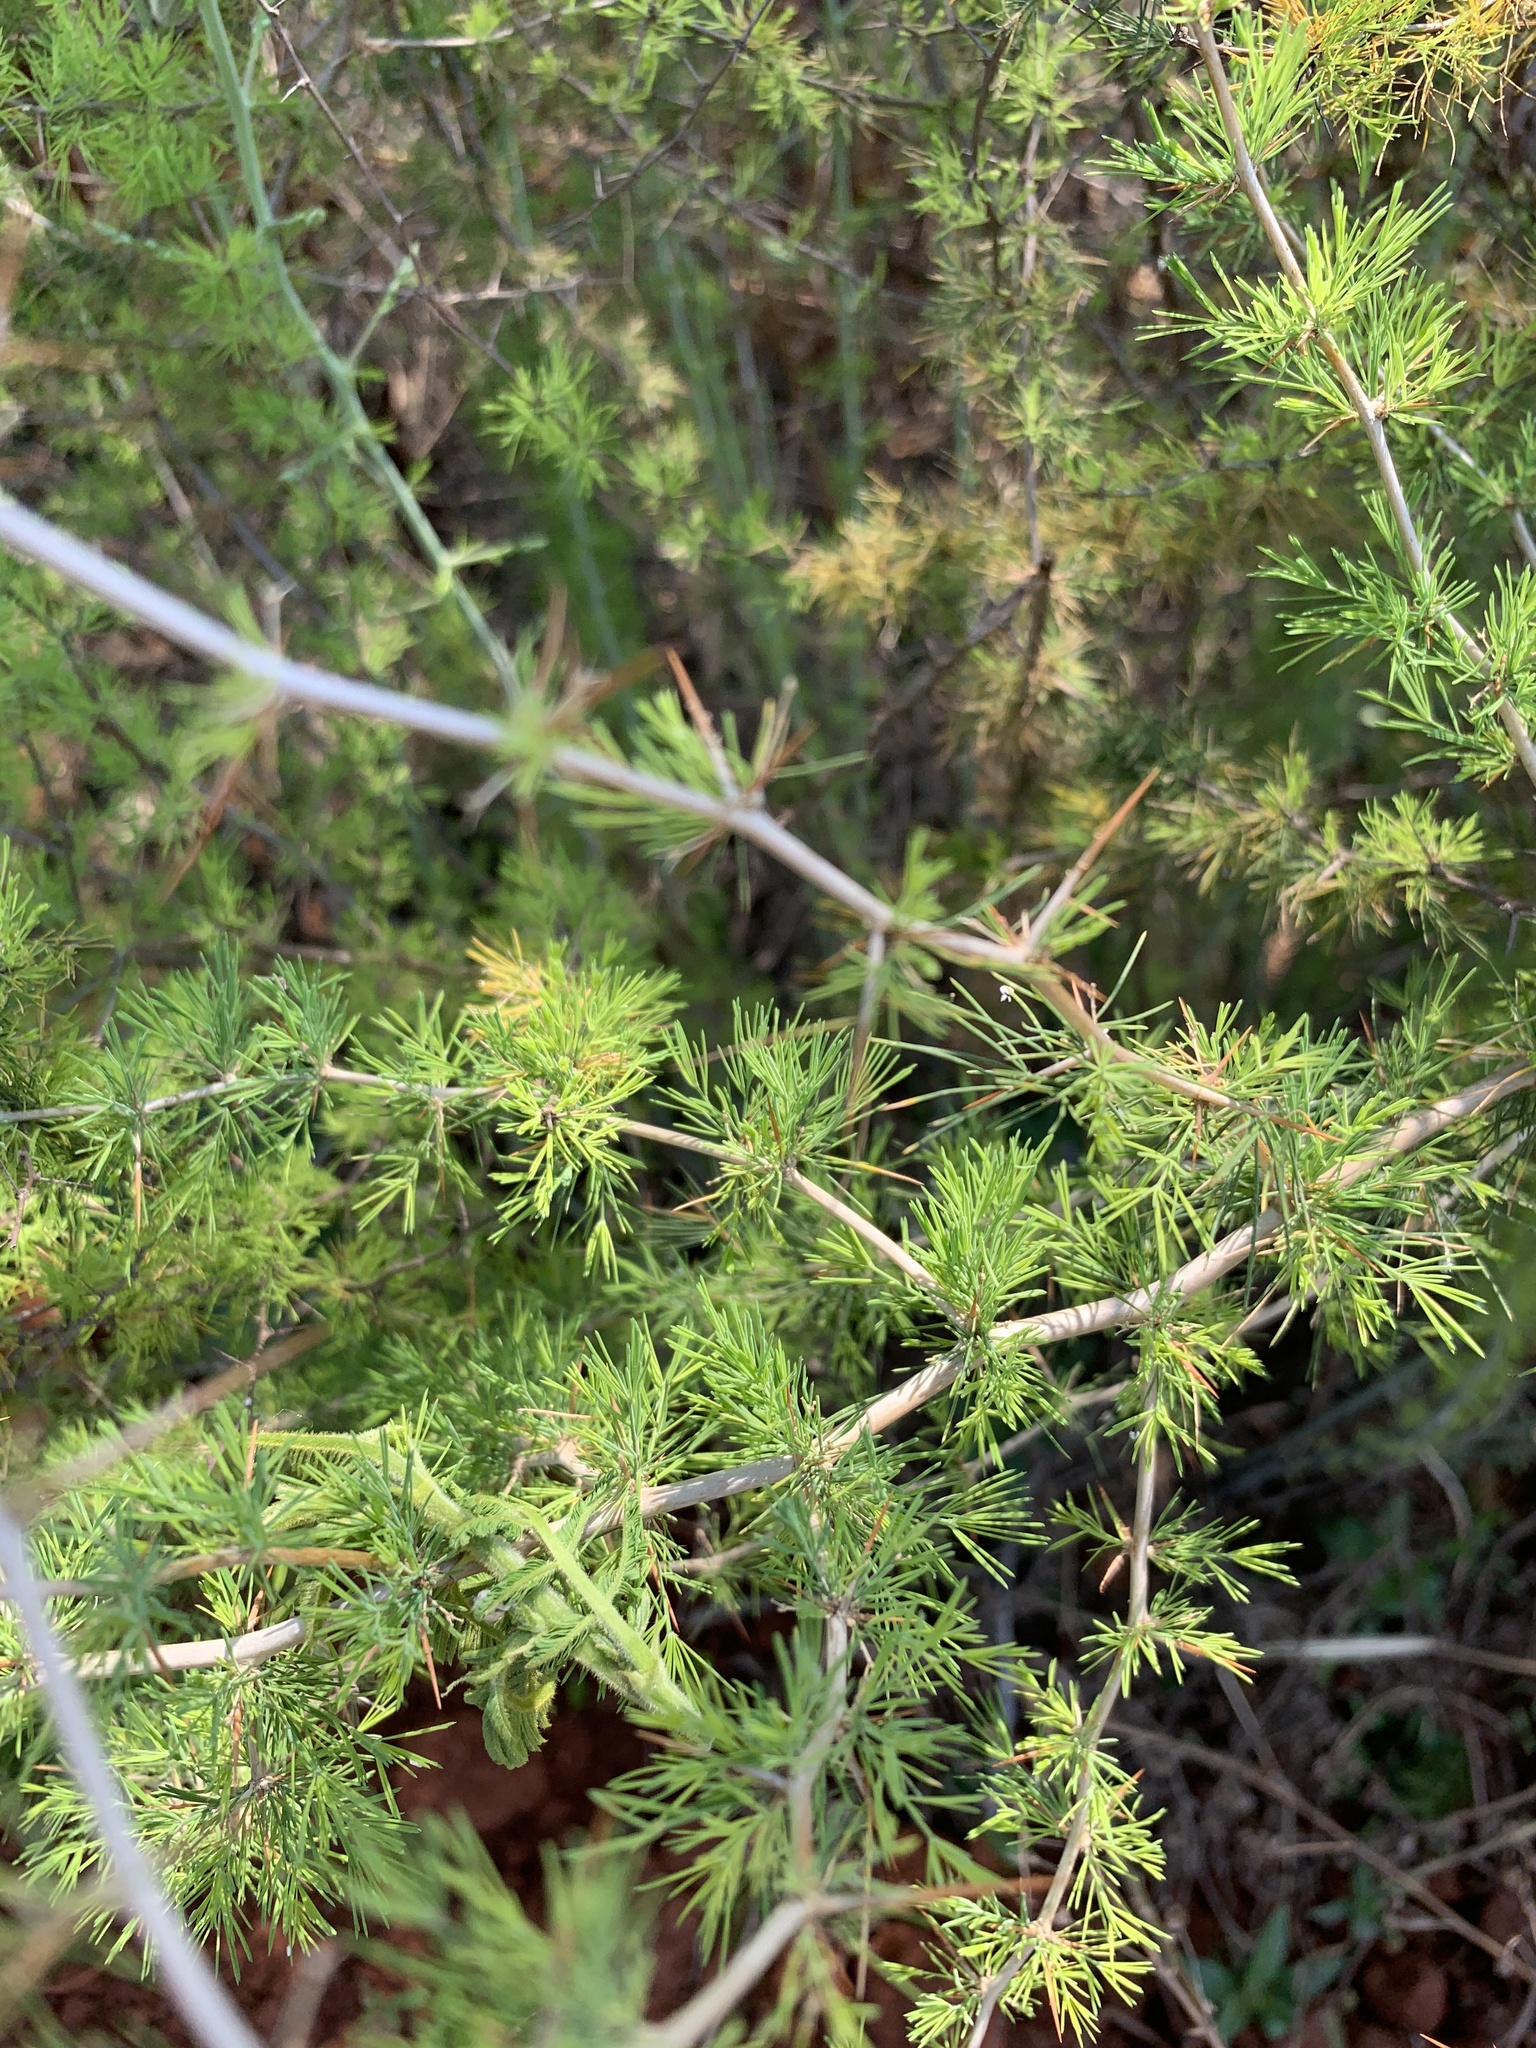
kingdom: Plantae
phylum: Tracheophyta
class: Liliopsida
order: Asparagales
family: Asparagaceae
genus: Asparagus
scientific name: Asparagus suaveolens
